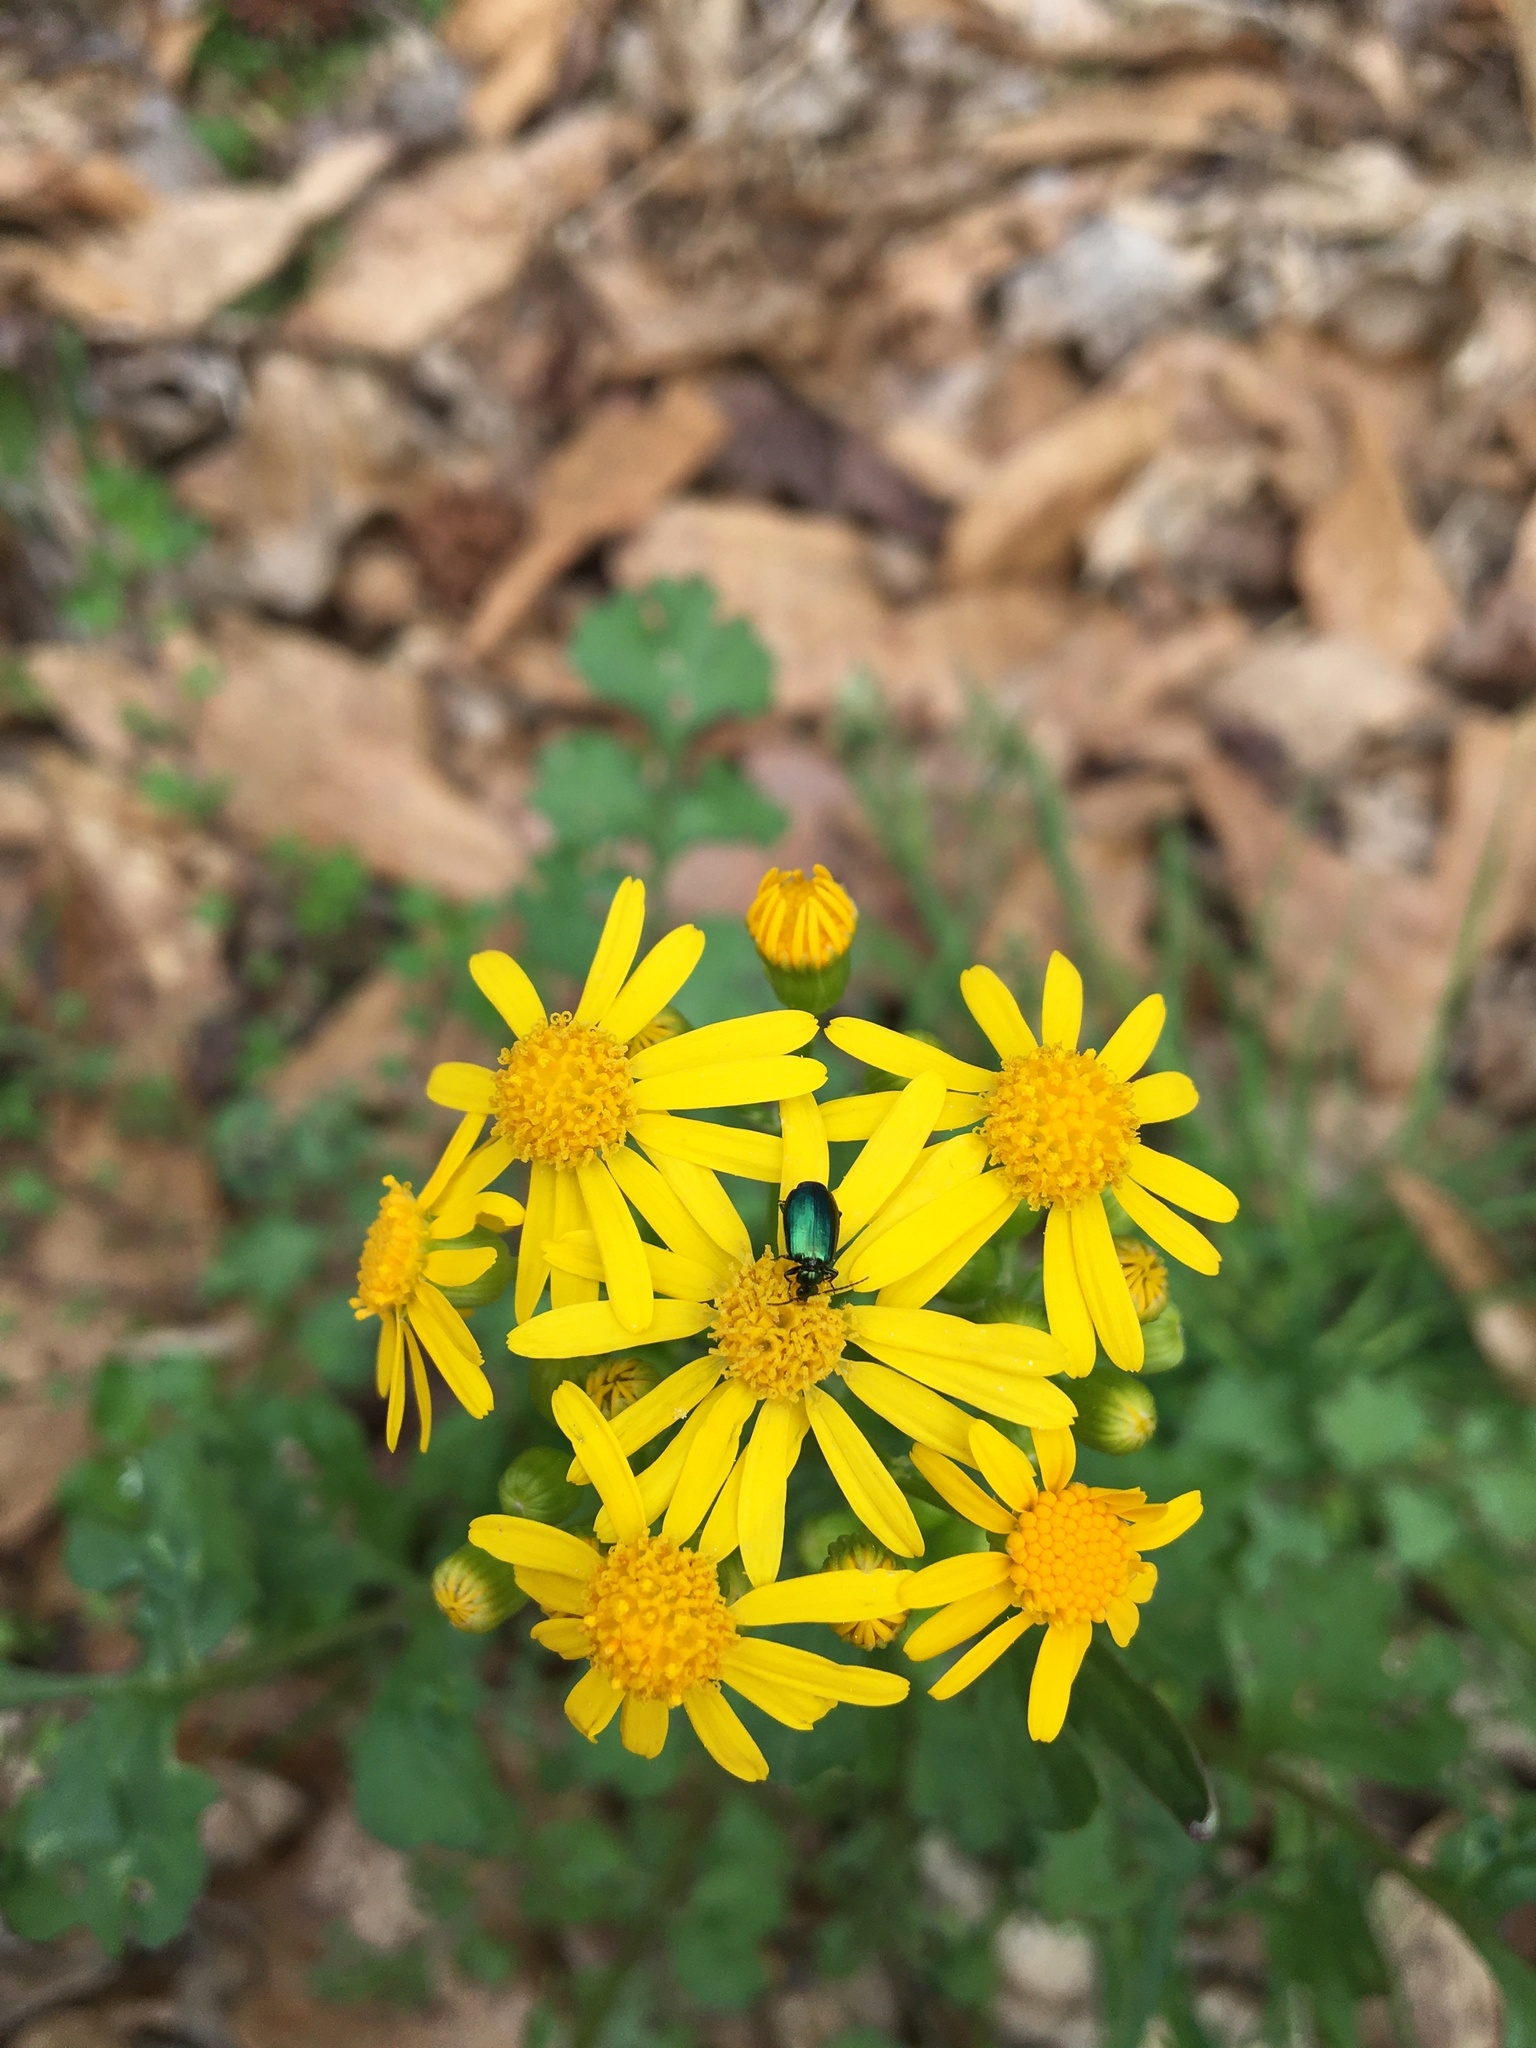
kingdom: Plantae
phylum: Tracheophyta
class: Magnoliopsida
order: Asterales
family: Asteraceae
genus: Packera
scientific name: Packera glabella
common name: Butterweed
